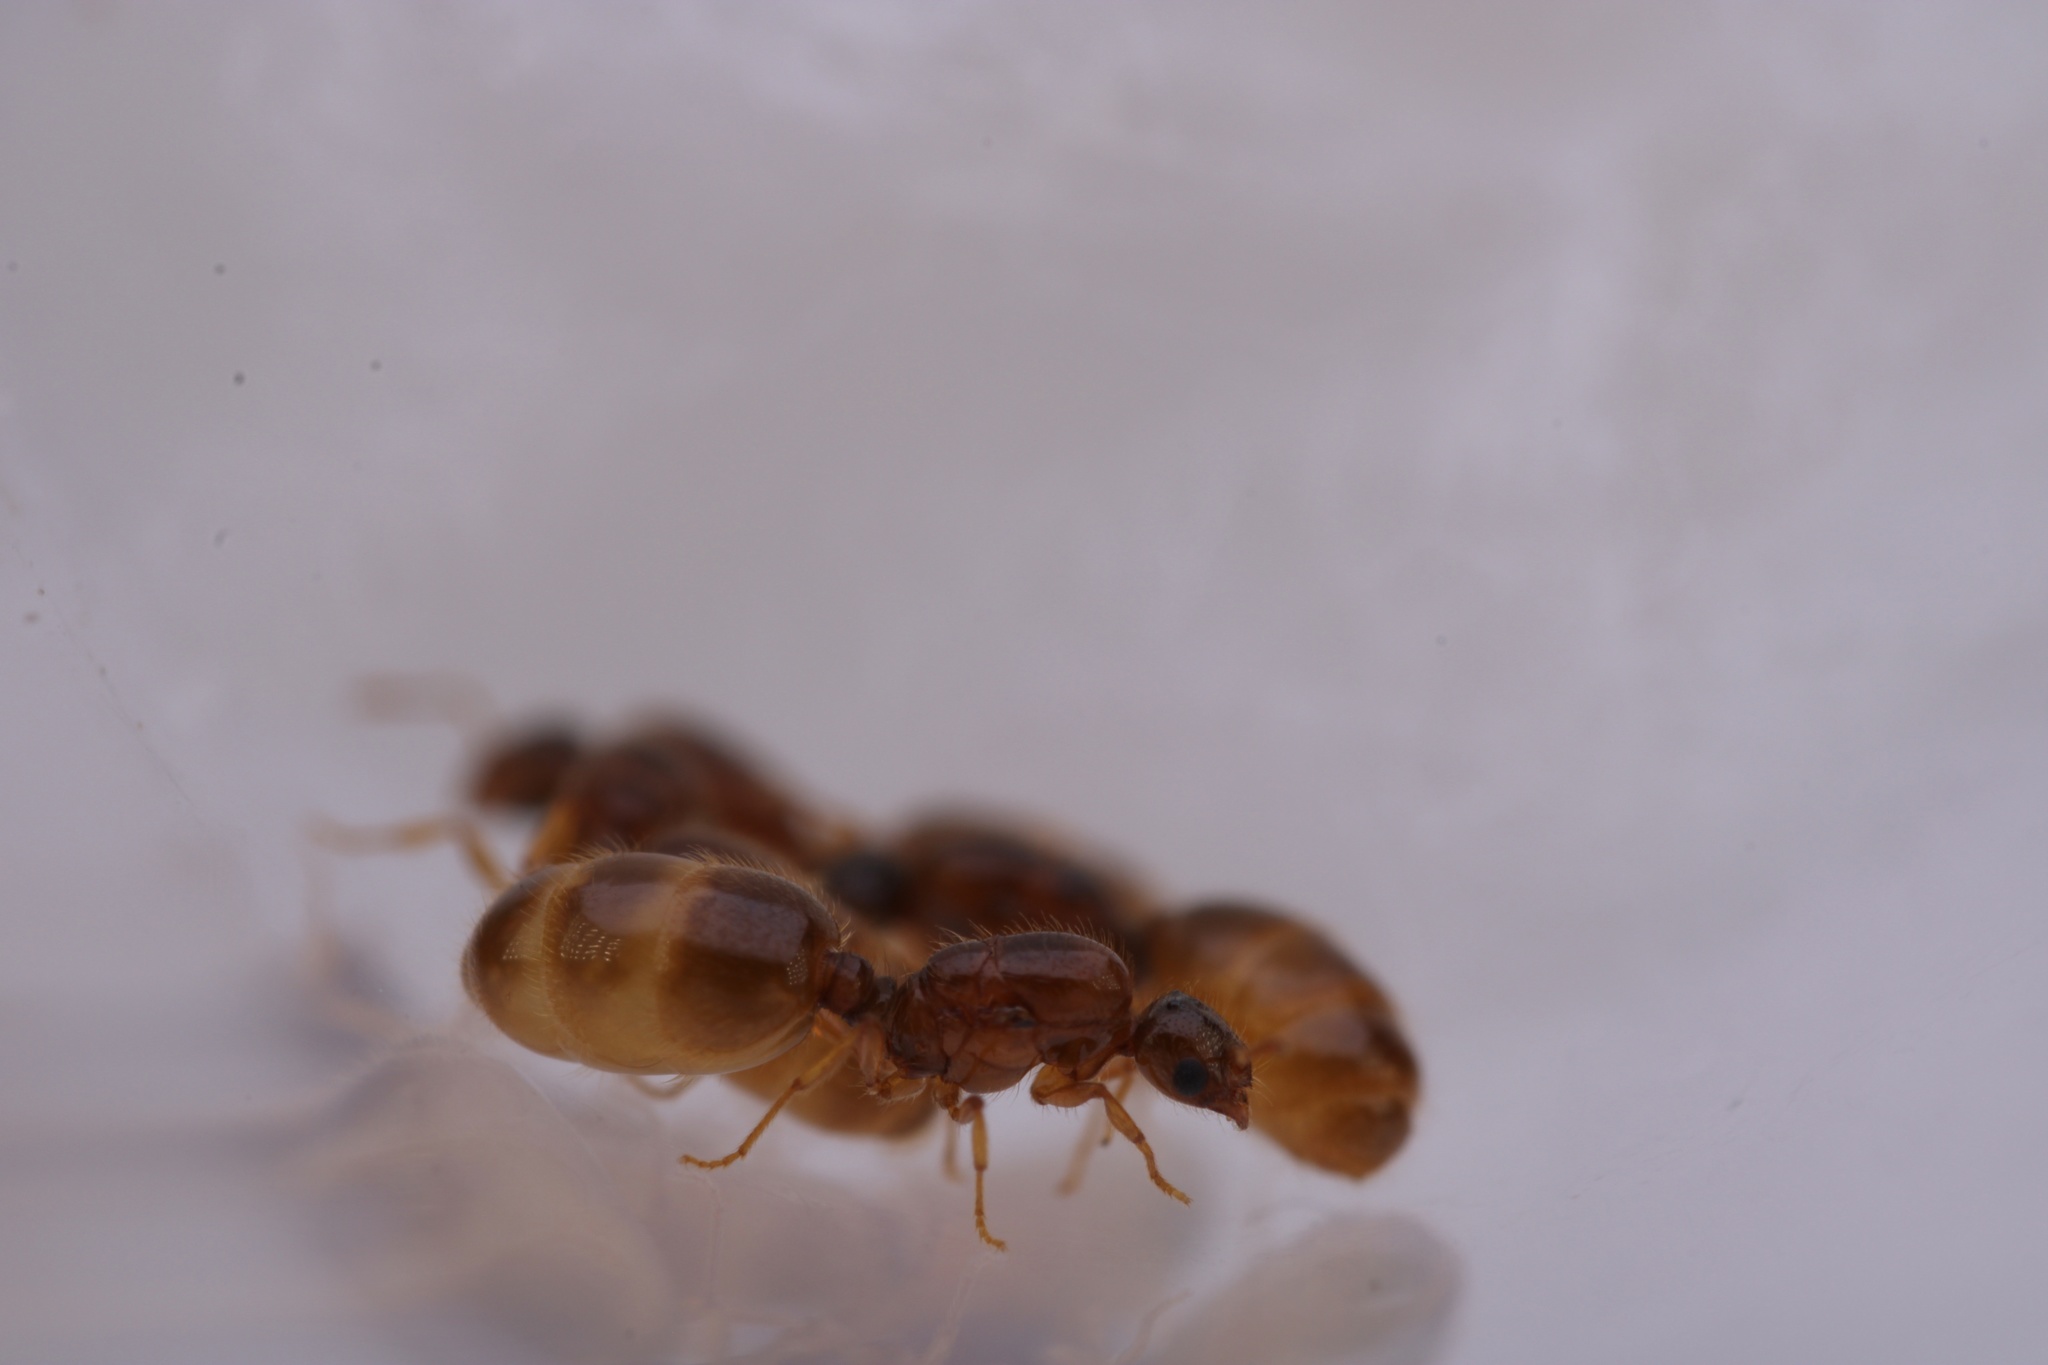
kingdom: Animalia
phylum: Arthropoda
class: Insecta
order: Hymenoptera
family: Formicidae
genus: Solenopsis
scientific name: Solenopsis molesta
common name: Thief ant
